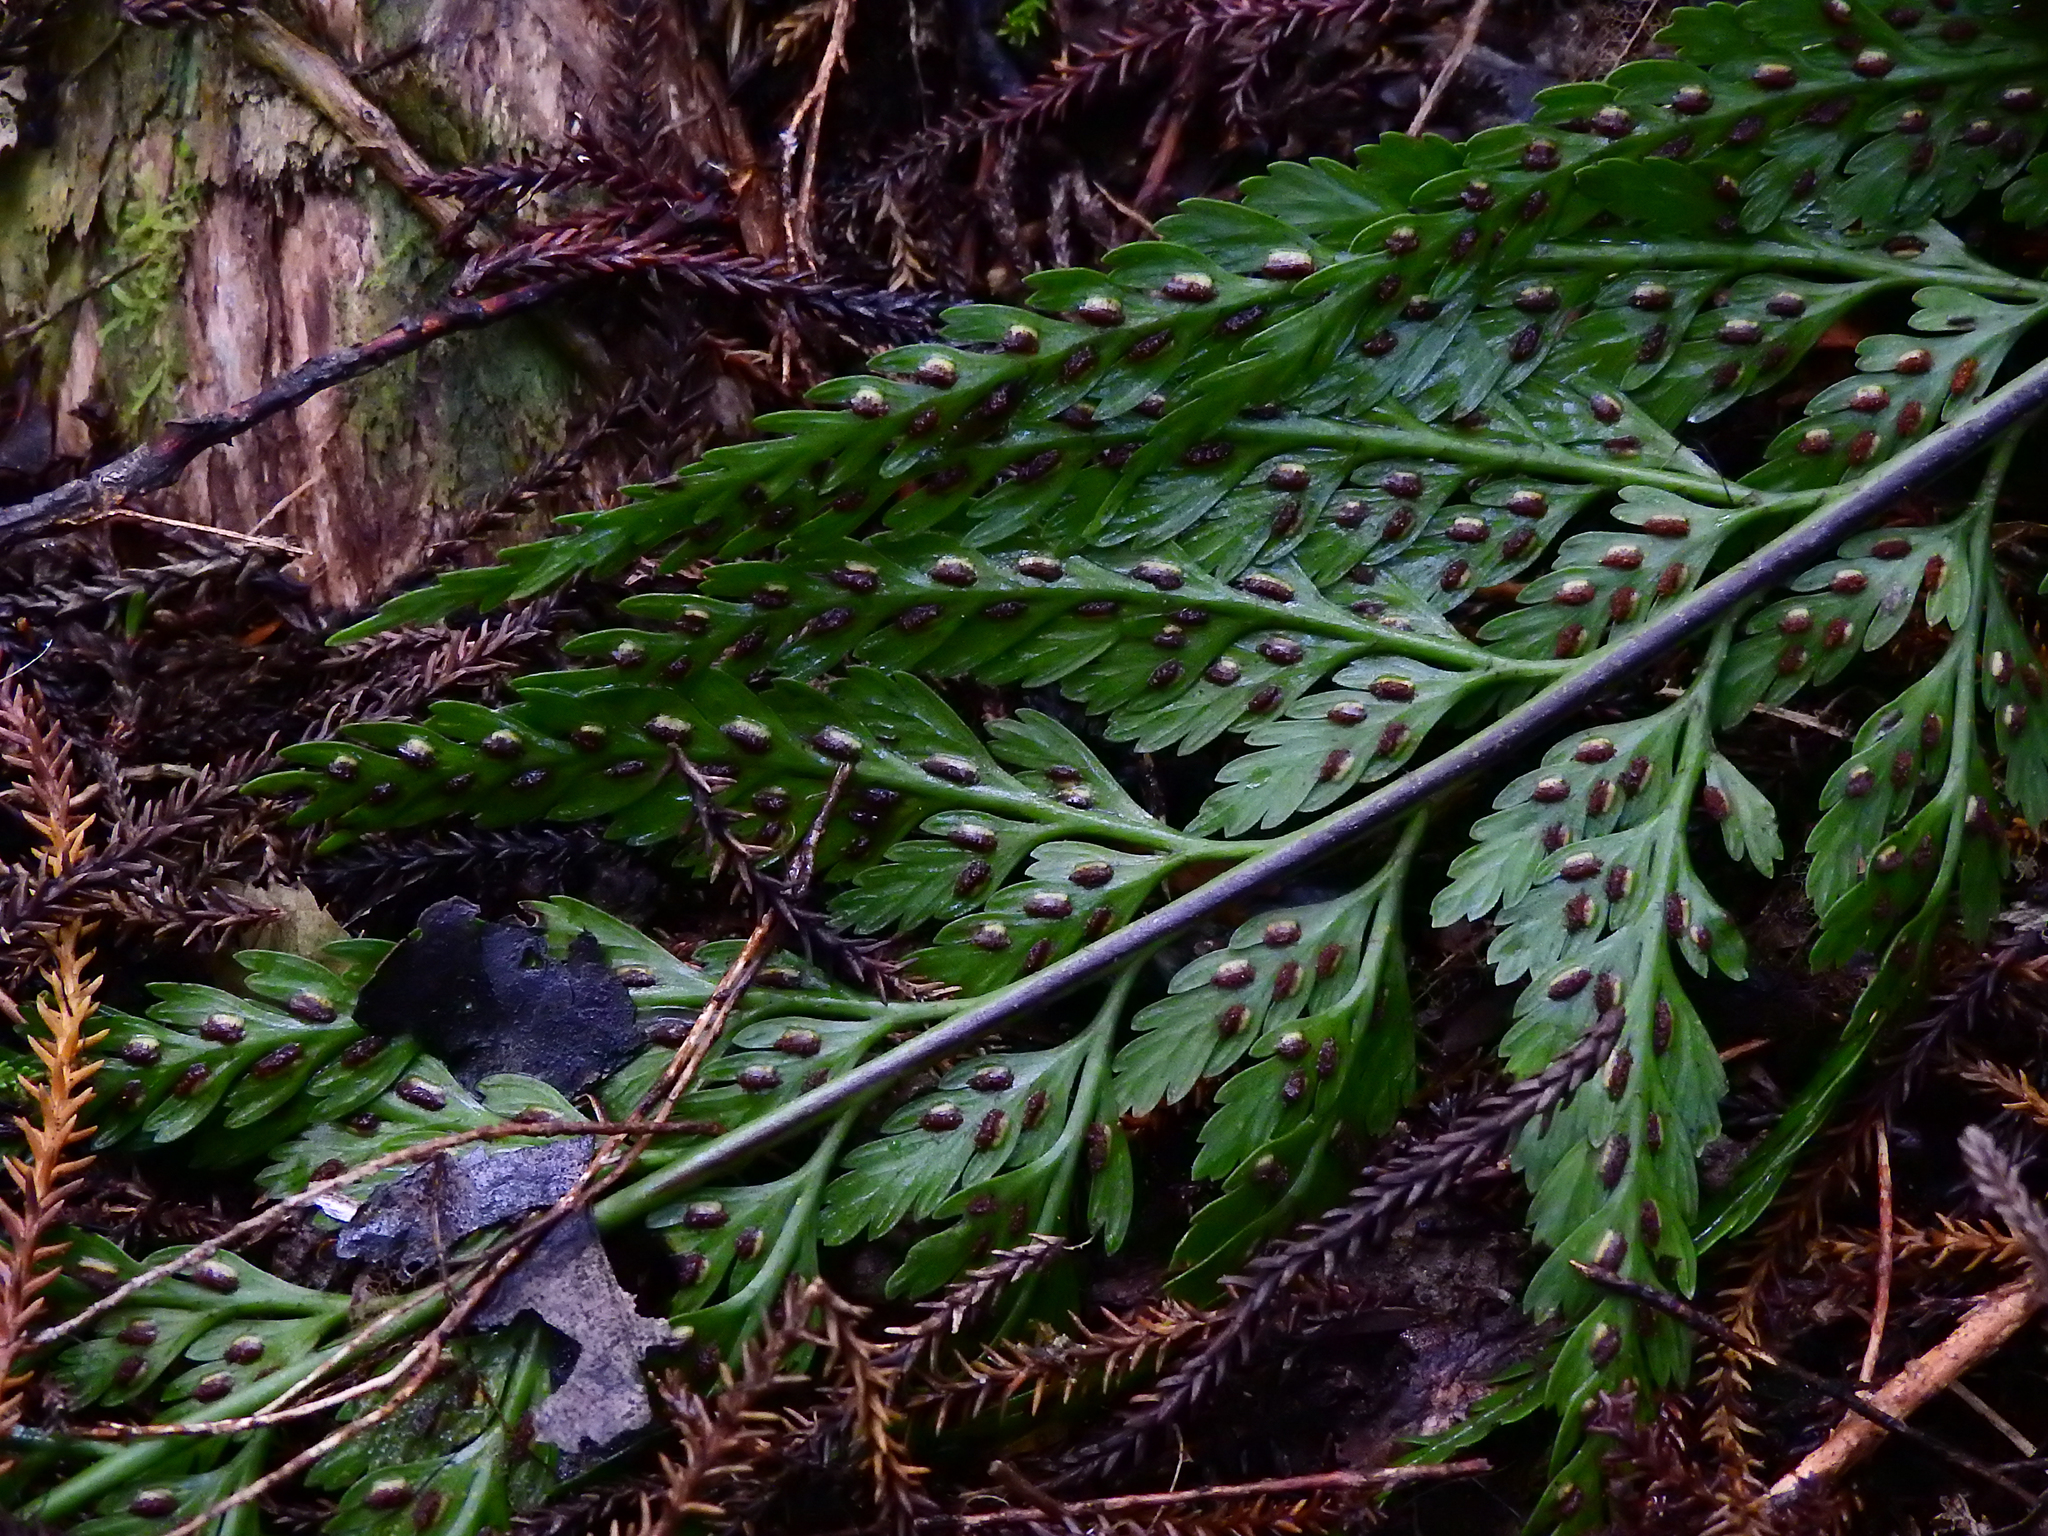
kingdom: Plantae
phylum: Tracheophyta
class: Polypodiopsida
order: Polypodiales
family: Aspleniaceae
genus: Asplenium
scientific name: Asplenium
